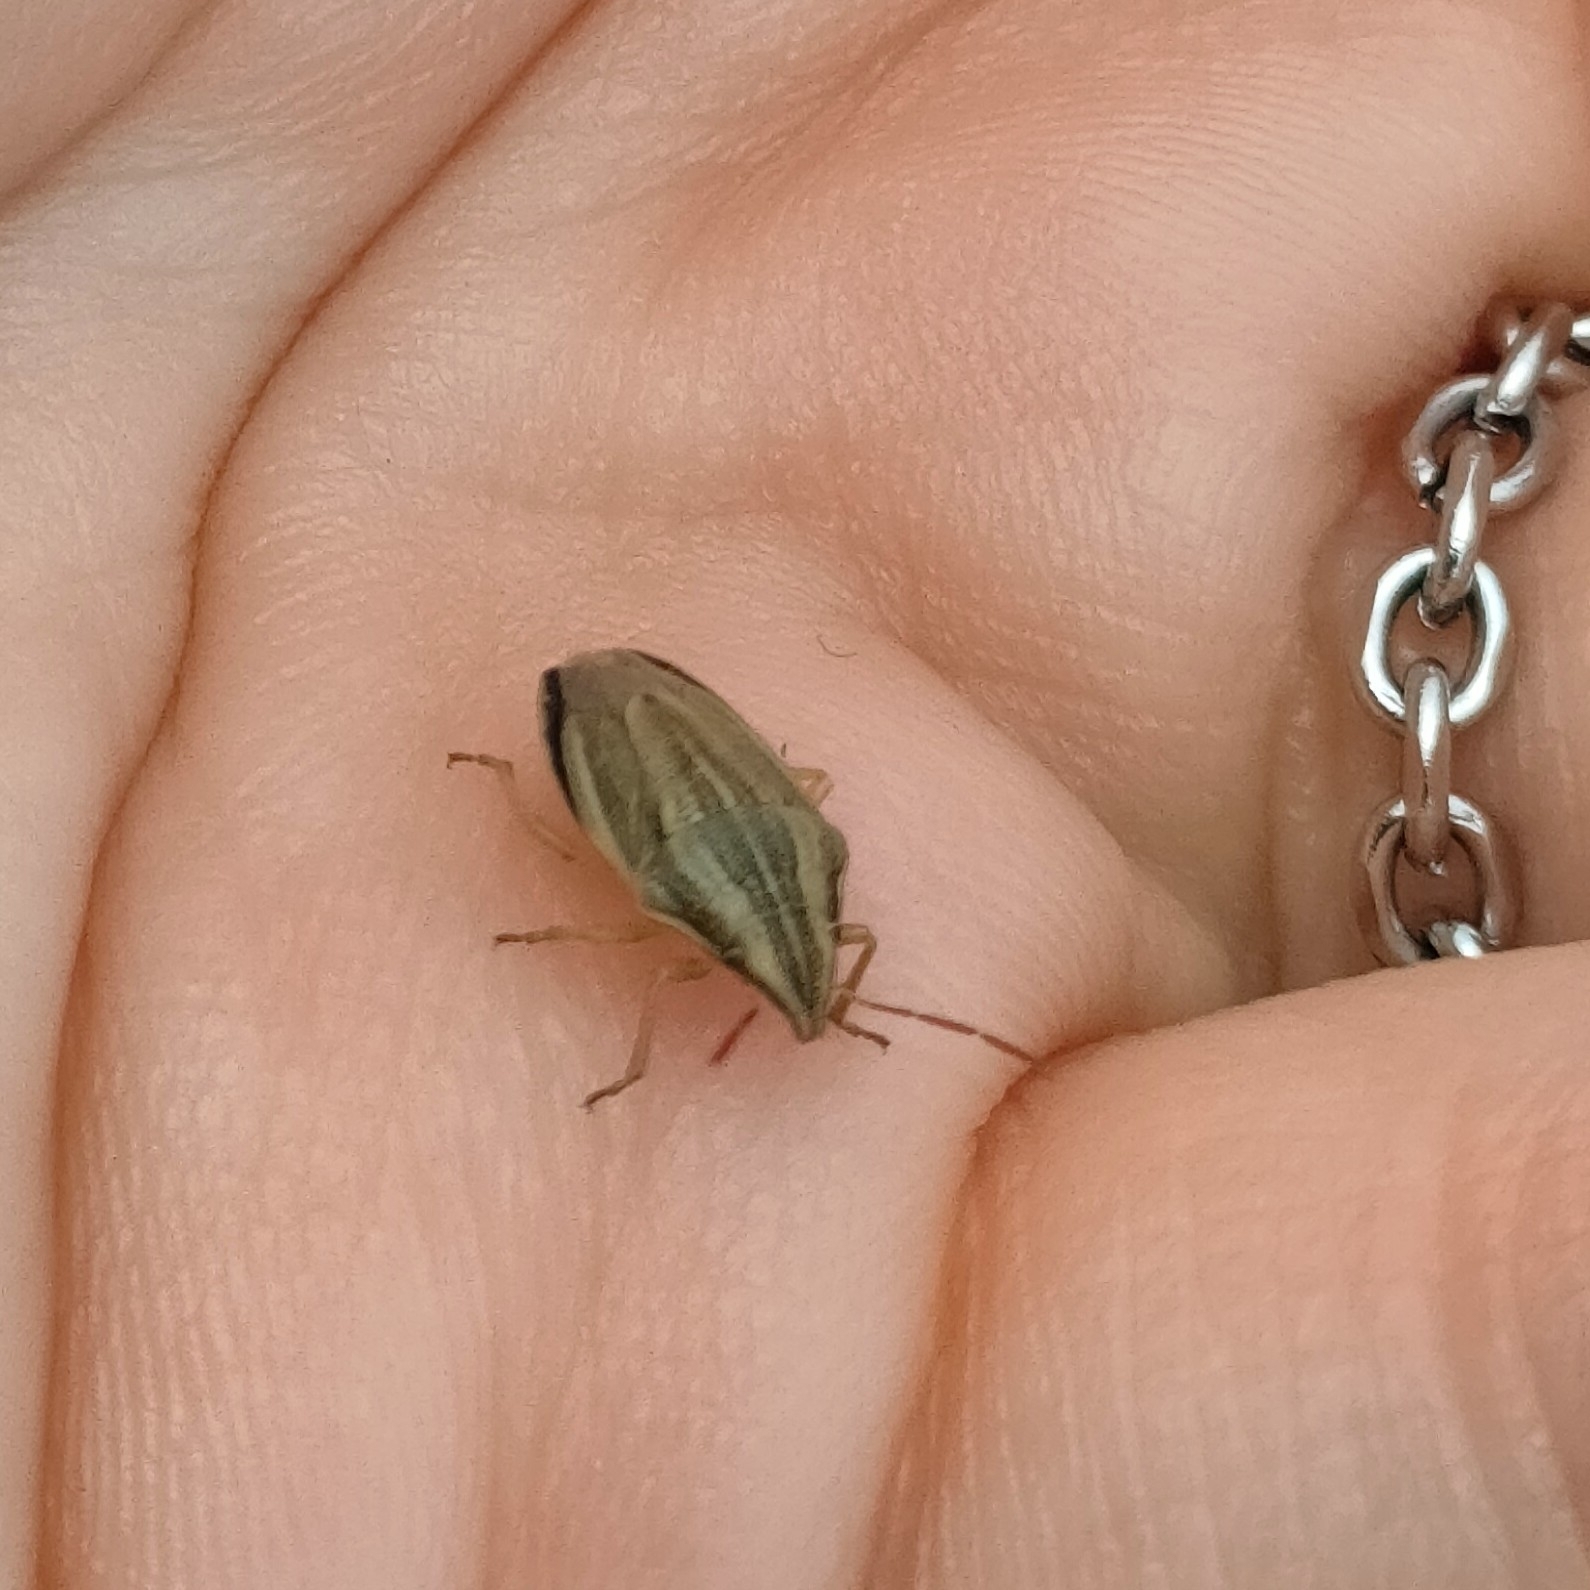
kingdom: Animalia
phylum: Arthropoda
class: Insecta
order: Hemiptera
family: Pentatomidae
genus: Aelia
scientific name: Aelia acuminata
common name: Bishop's mitre
